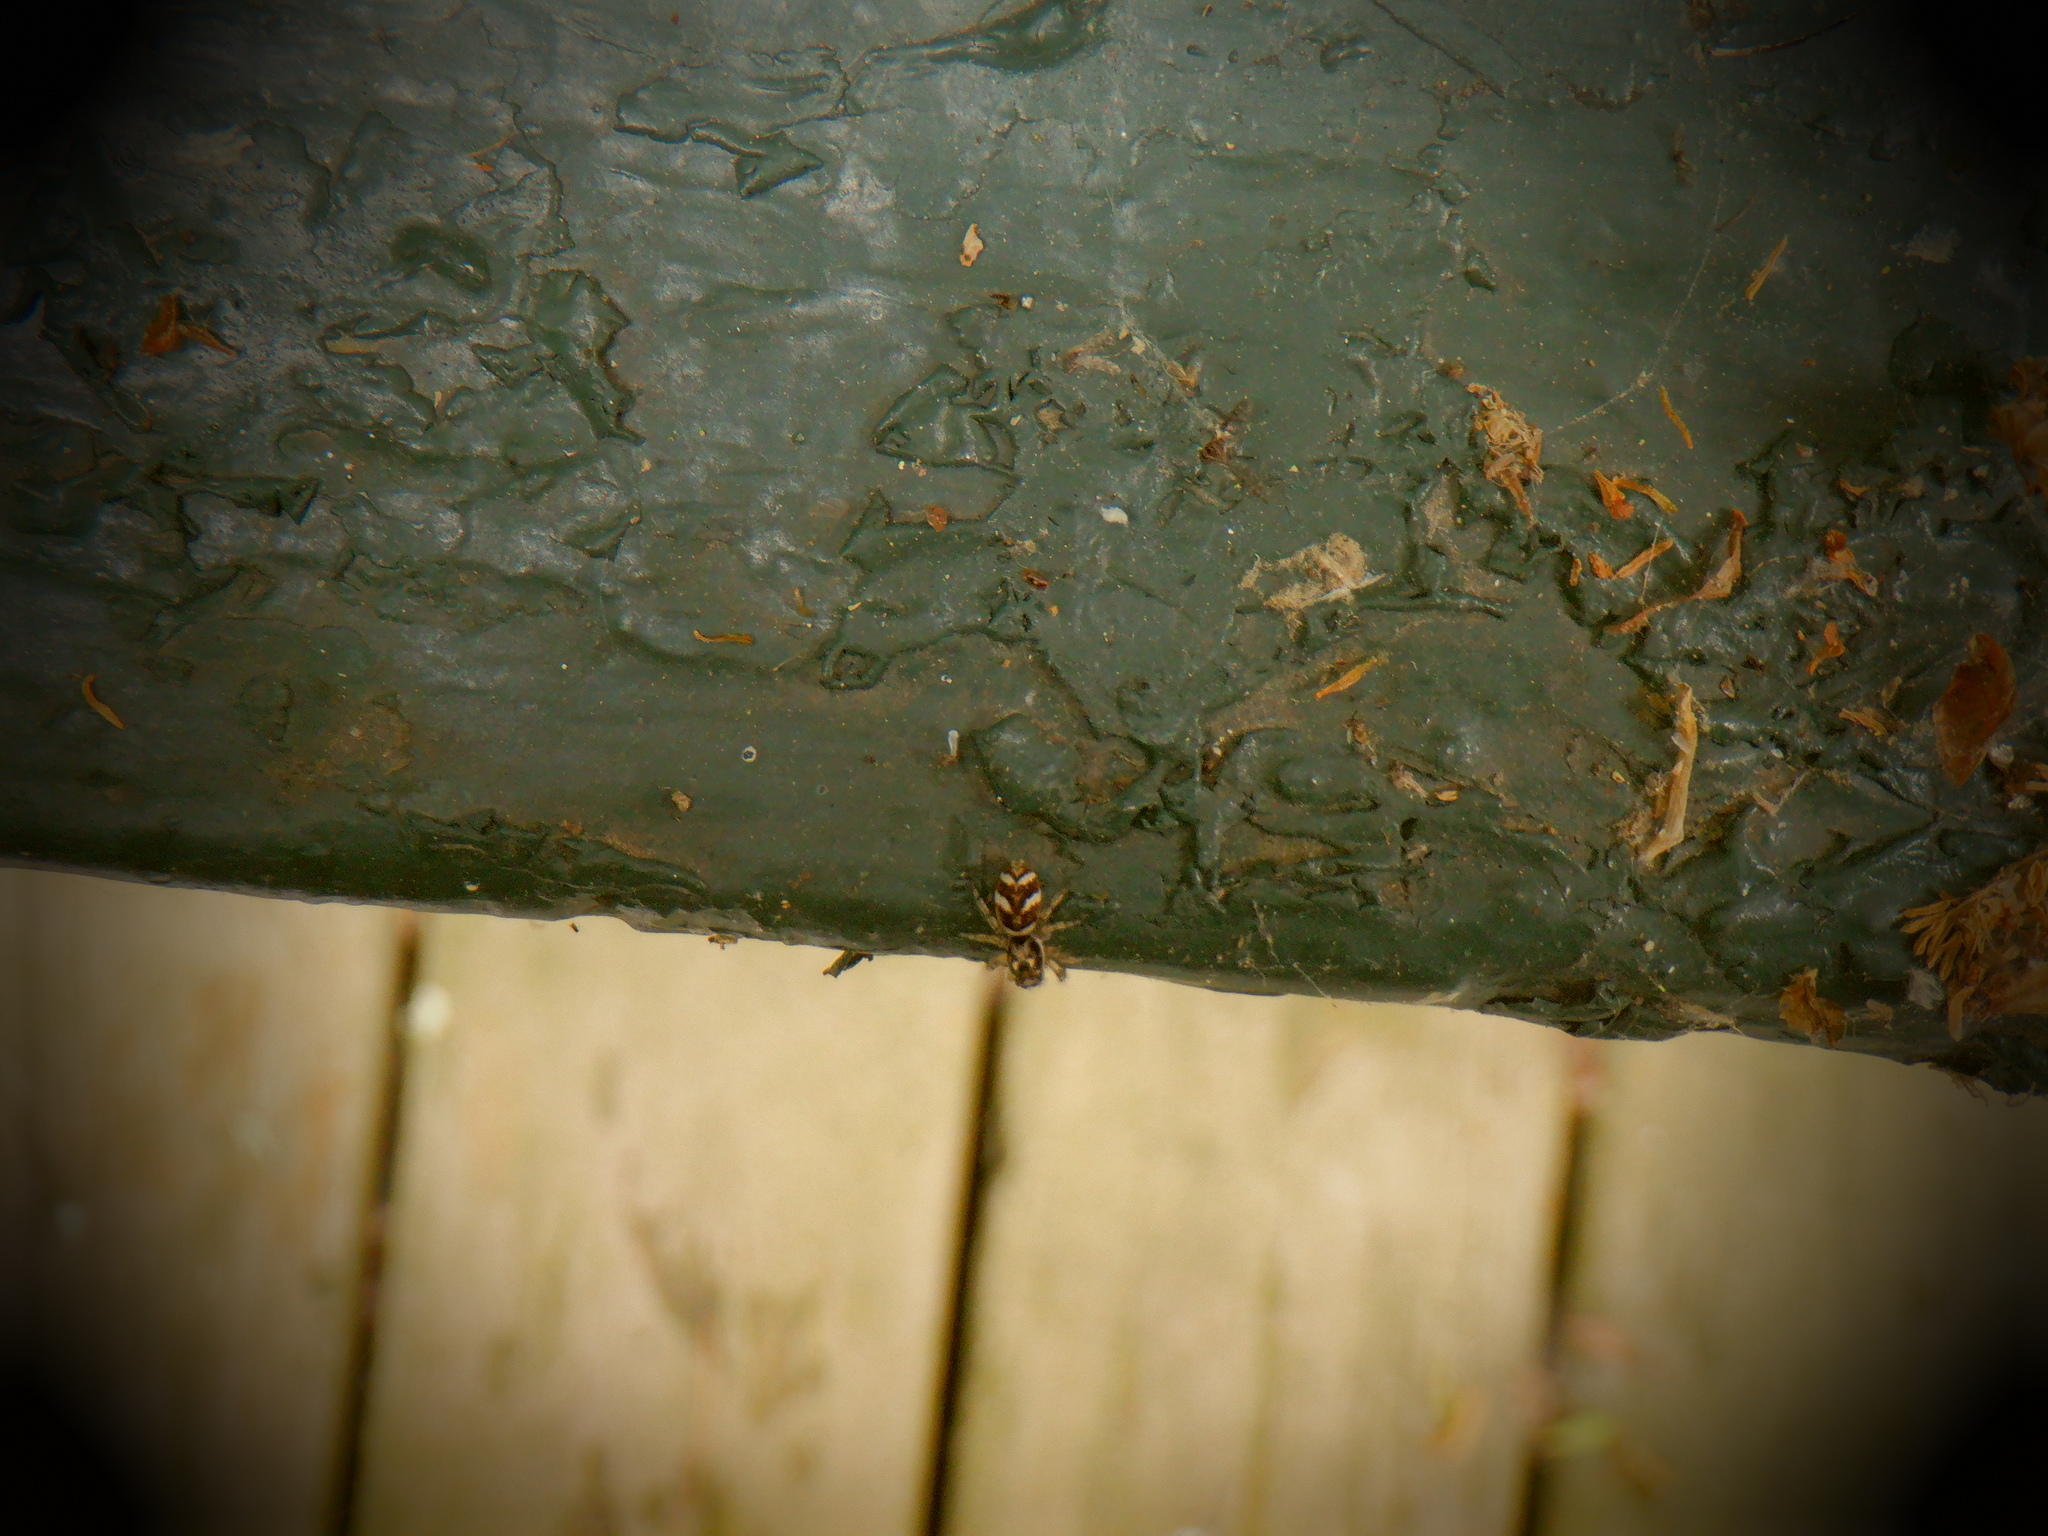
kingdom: Animalia
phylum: Arthropoda
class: Arachnida
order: Araneae
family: Salticidae
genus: Salticus
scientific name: Salticus scenicus
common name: Zebra jumper
